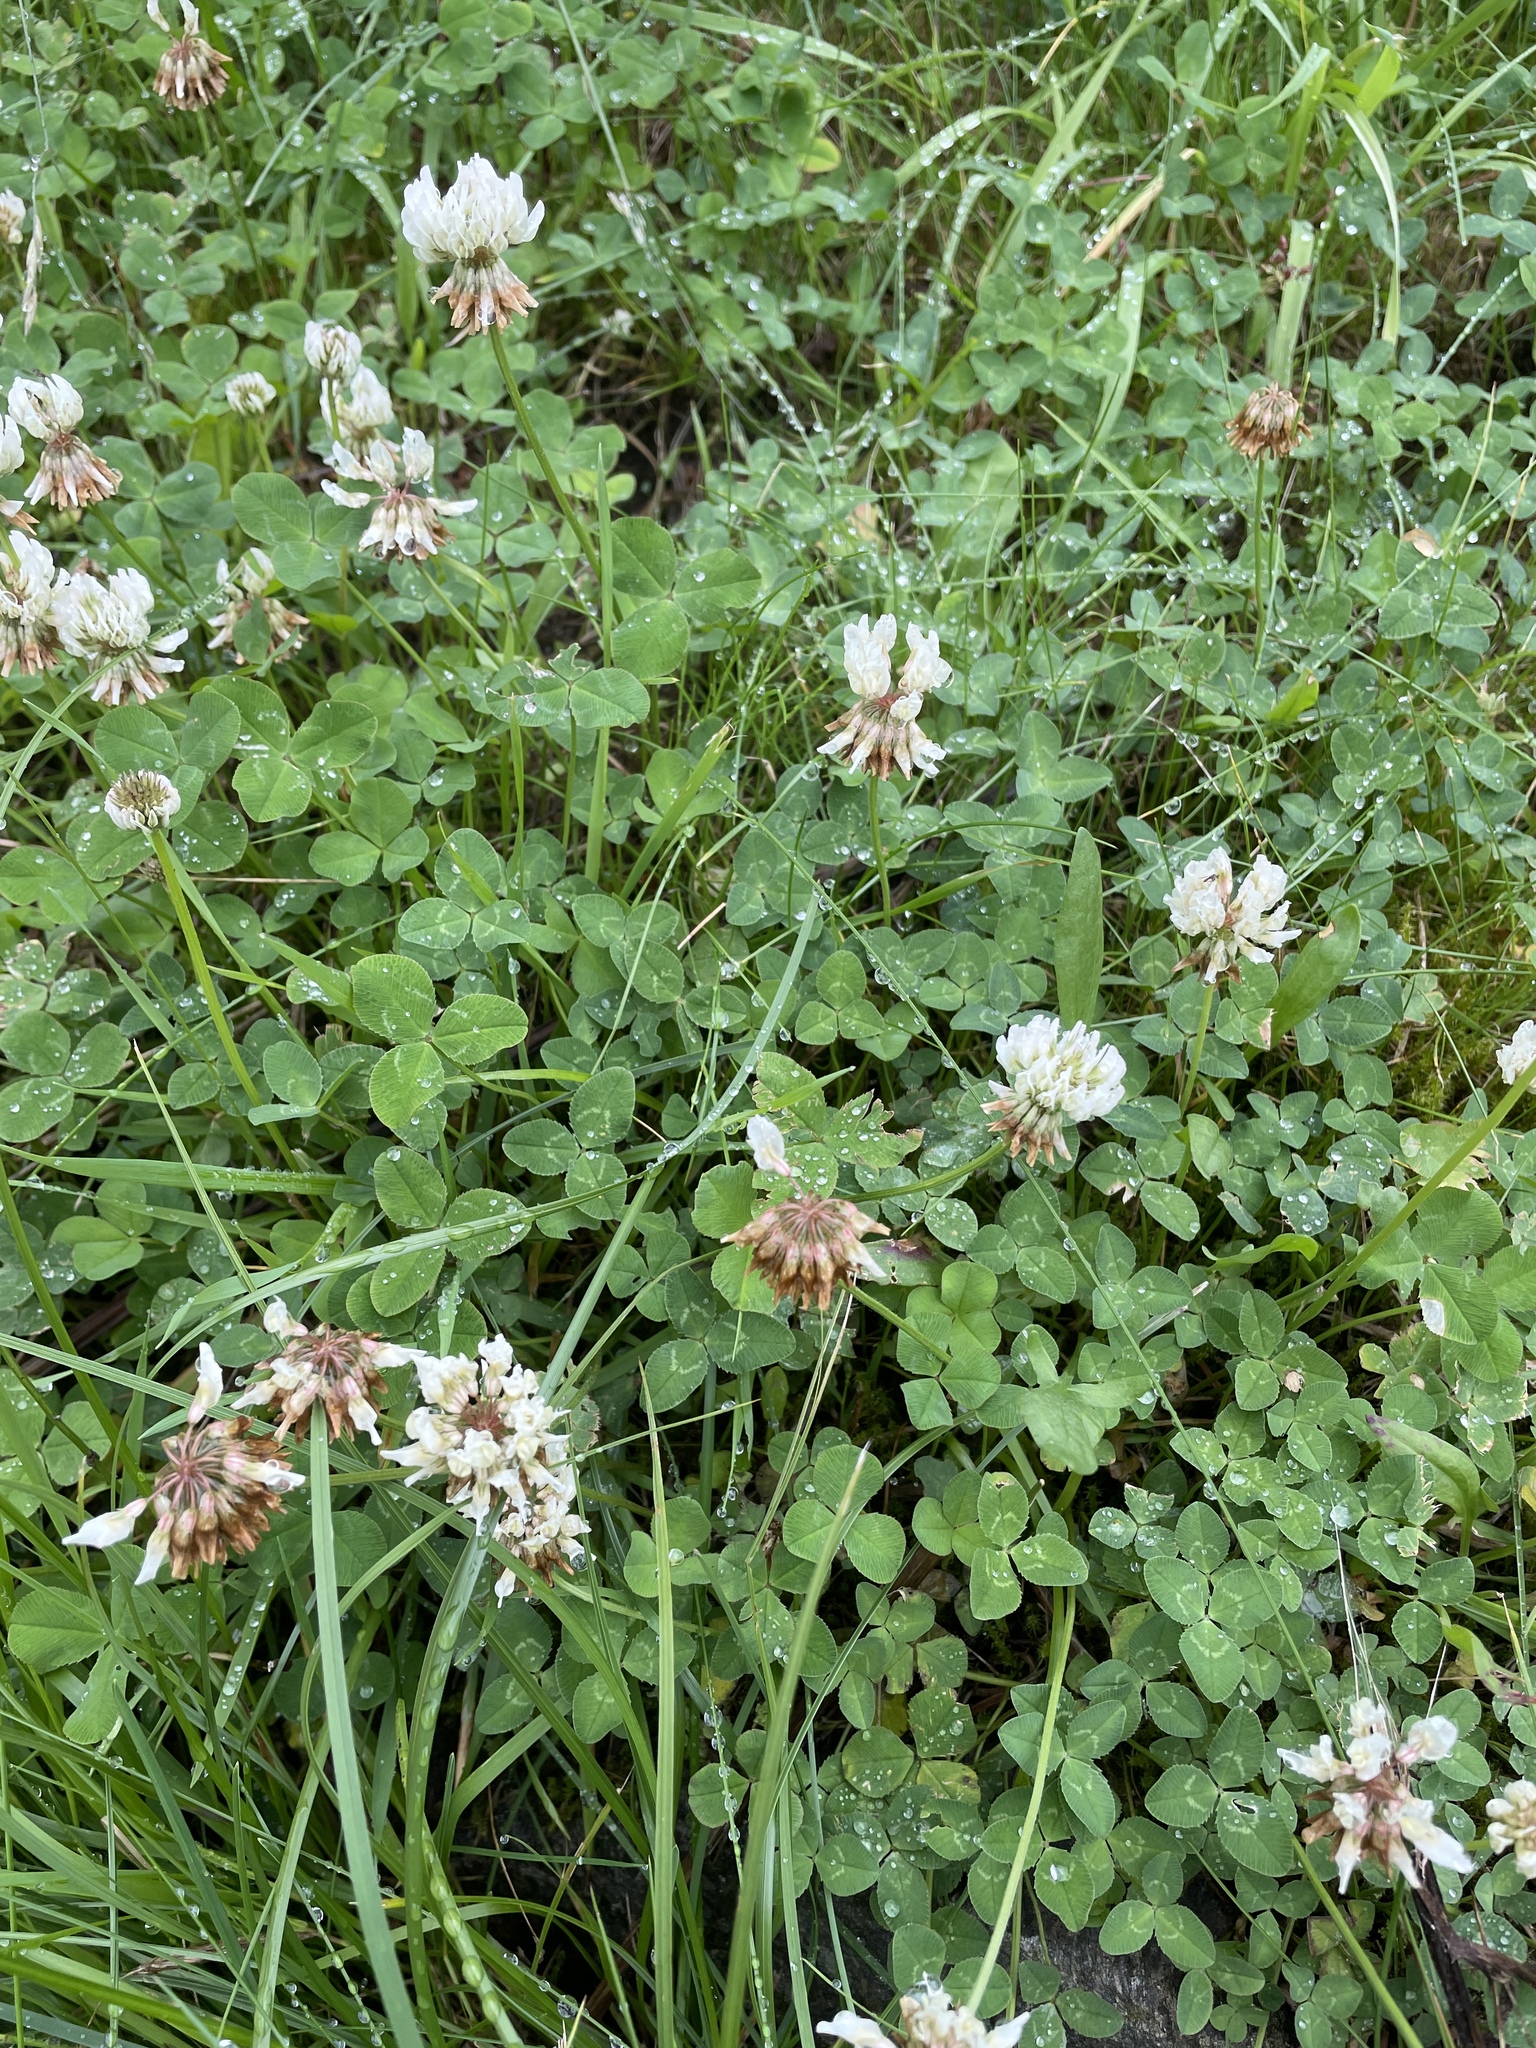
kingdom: Plantae
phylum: Tracheophyta
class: Magnoliopsida
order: Fabales
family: Fabaceae
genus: Trifolium
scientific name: Trifolium repens
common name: White clover
